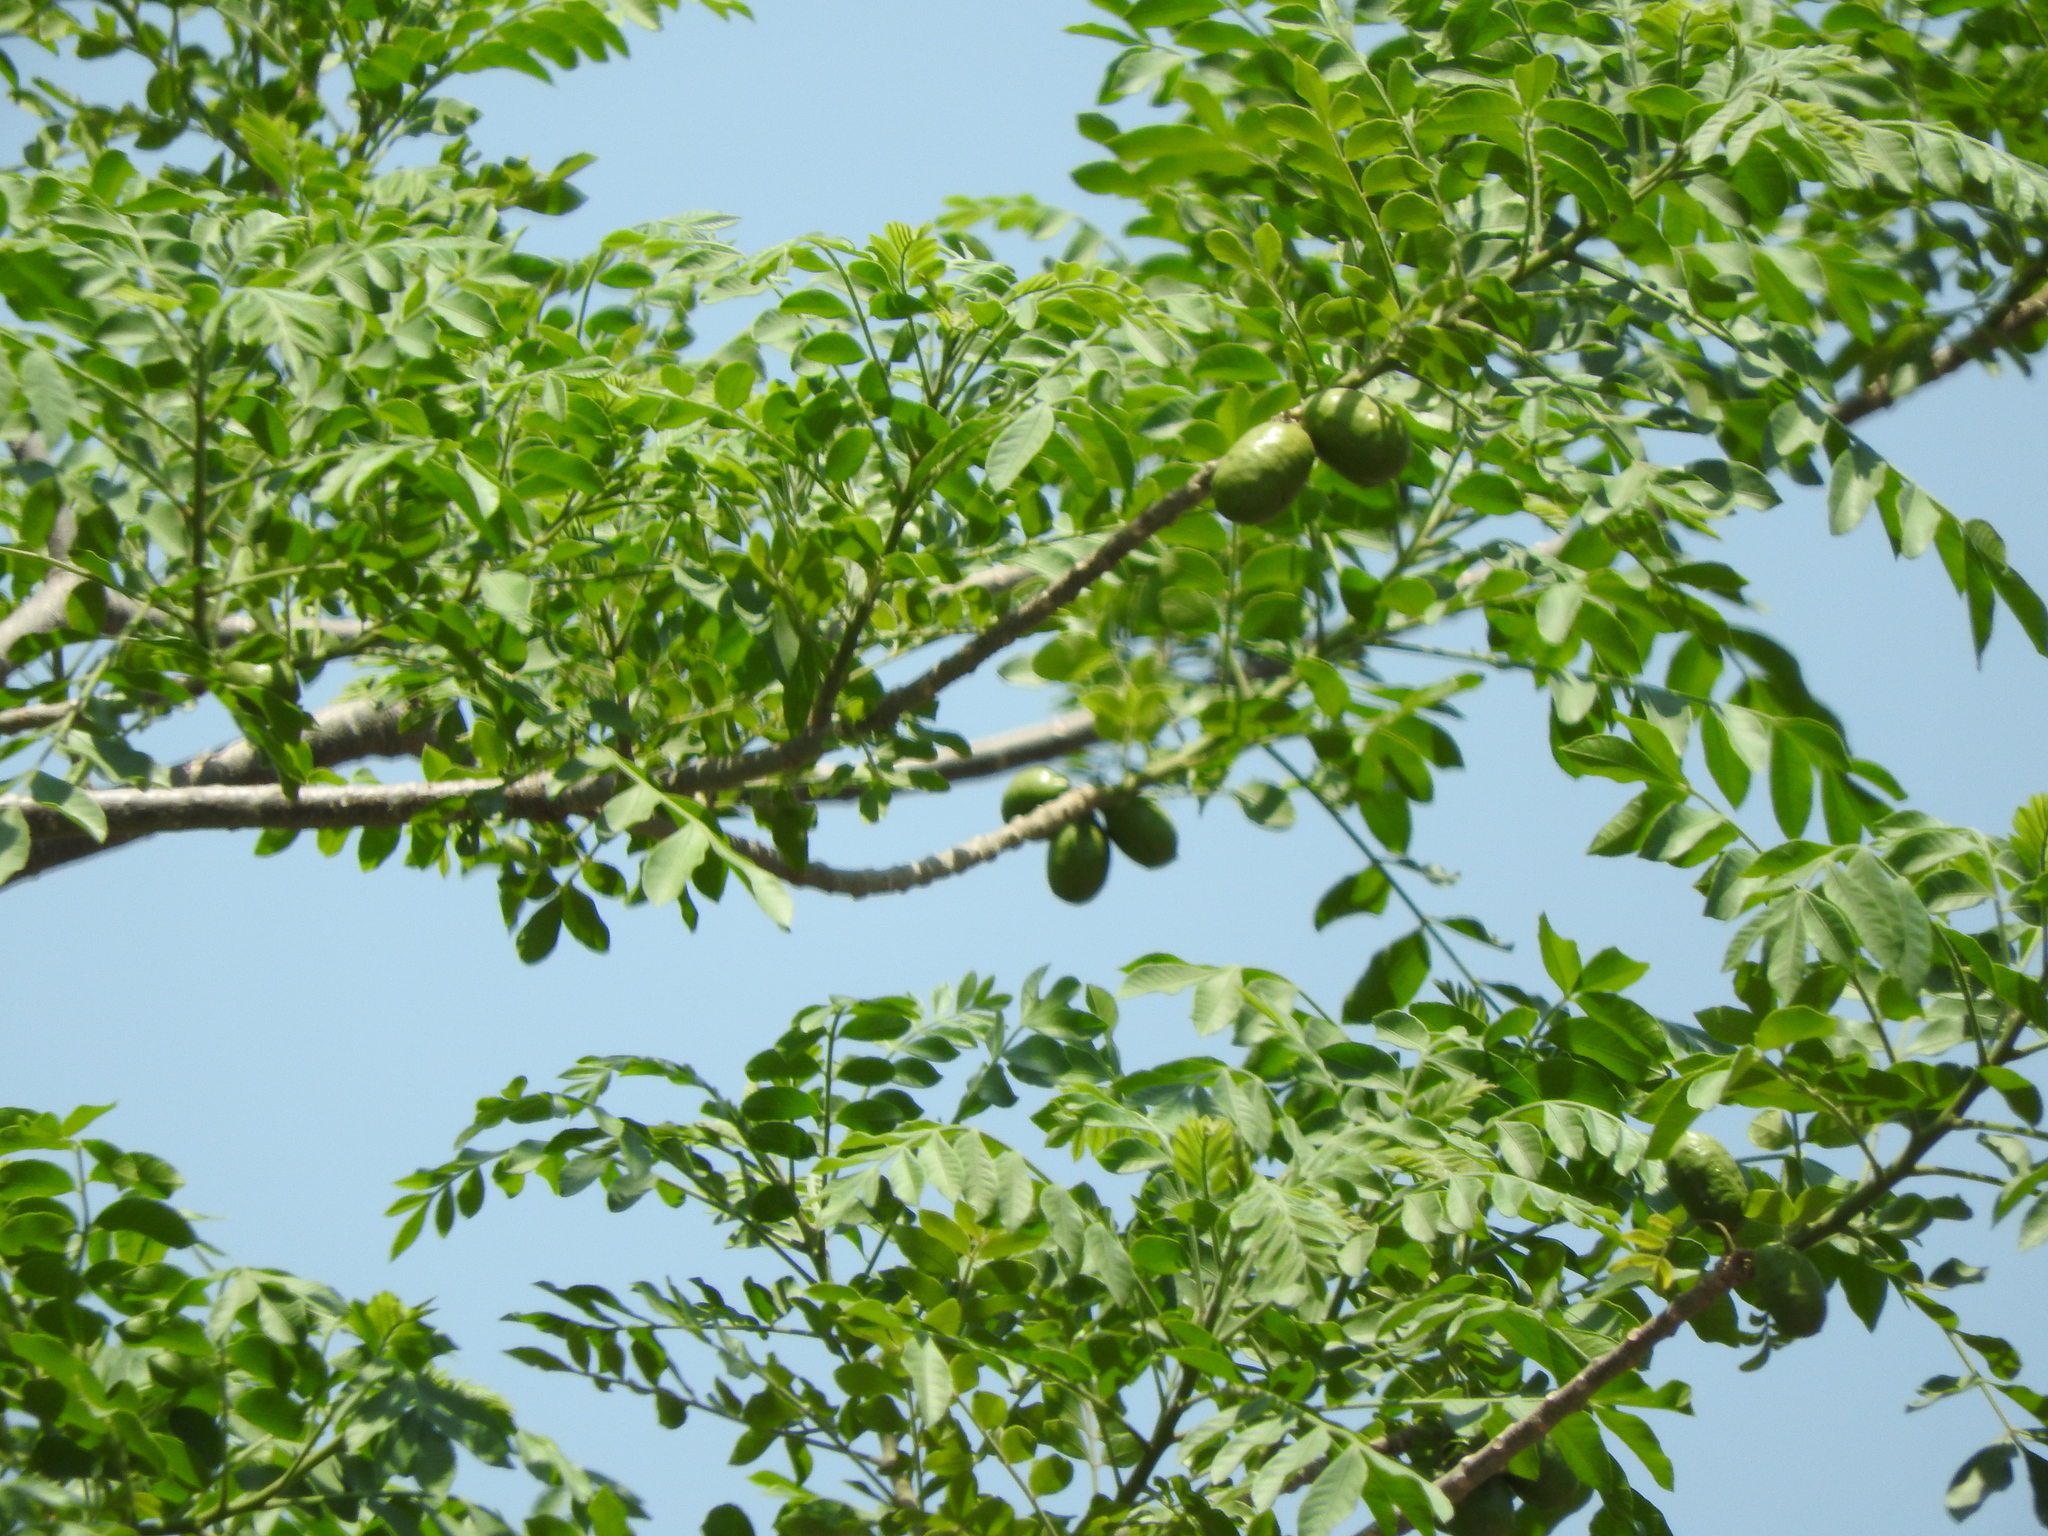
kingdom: Plantae
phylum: Tracheophyta
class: Magnoliopsida
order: Sapindales
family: Anacardiaceae
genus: Spondias
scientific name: Spondias purpurea
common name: Purple mombin
